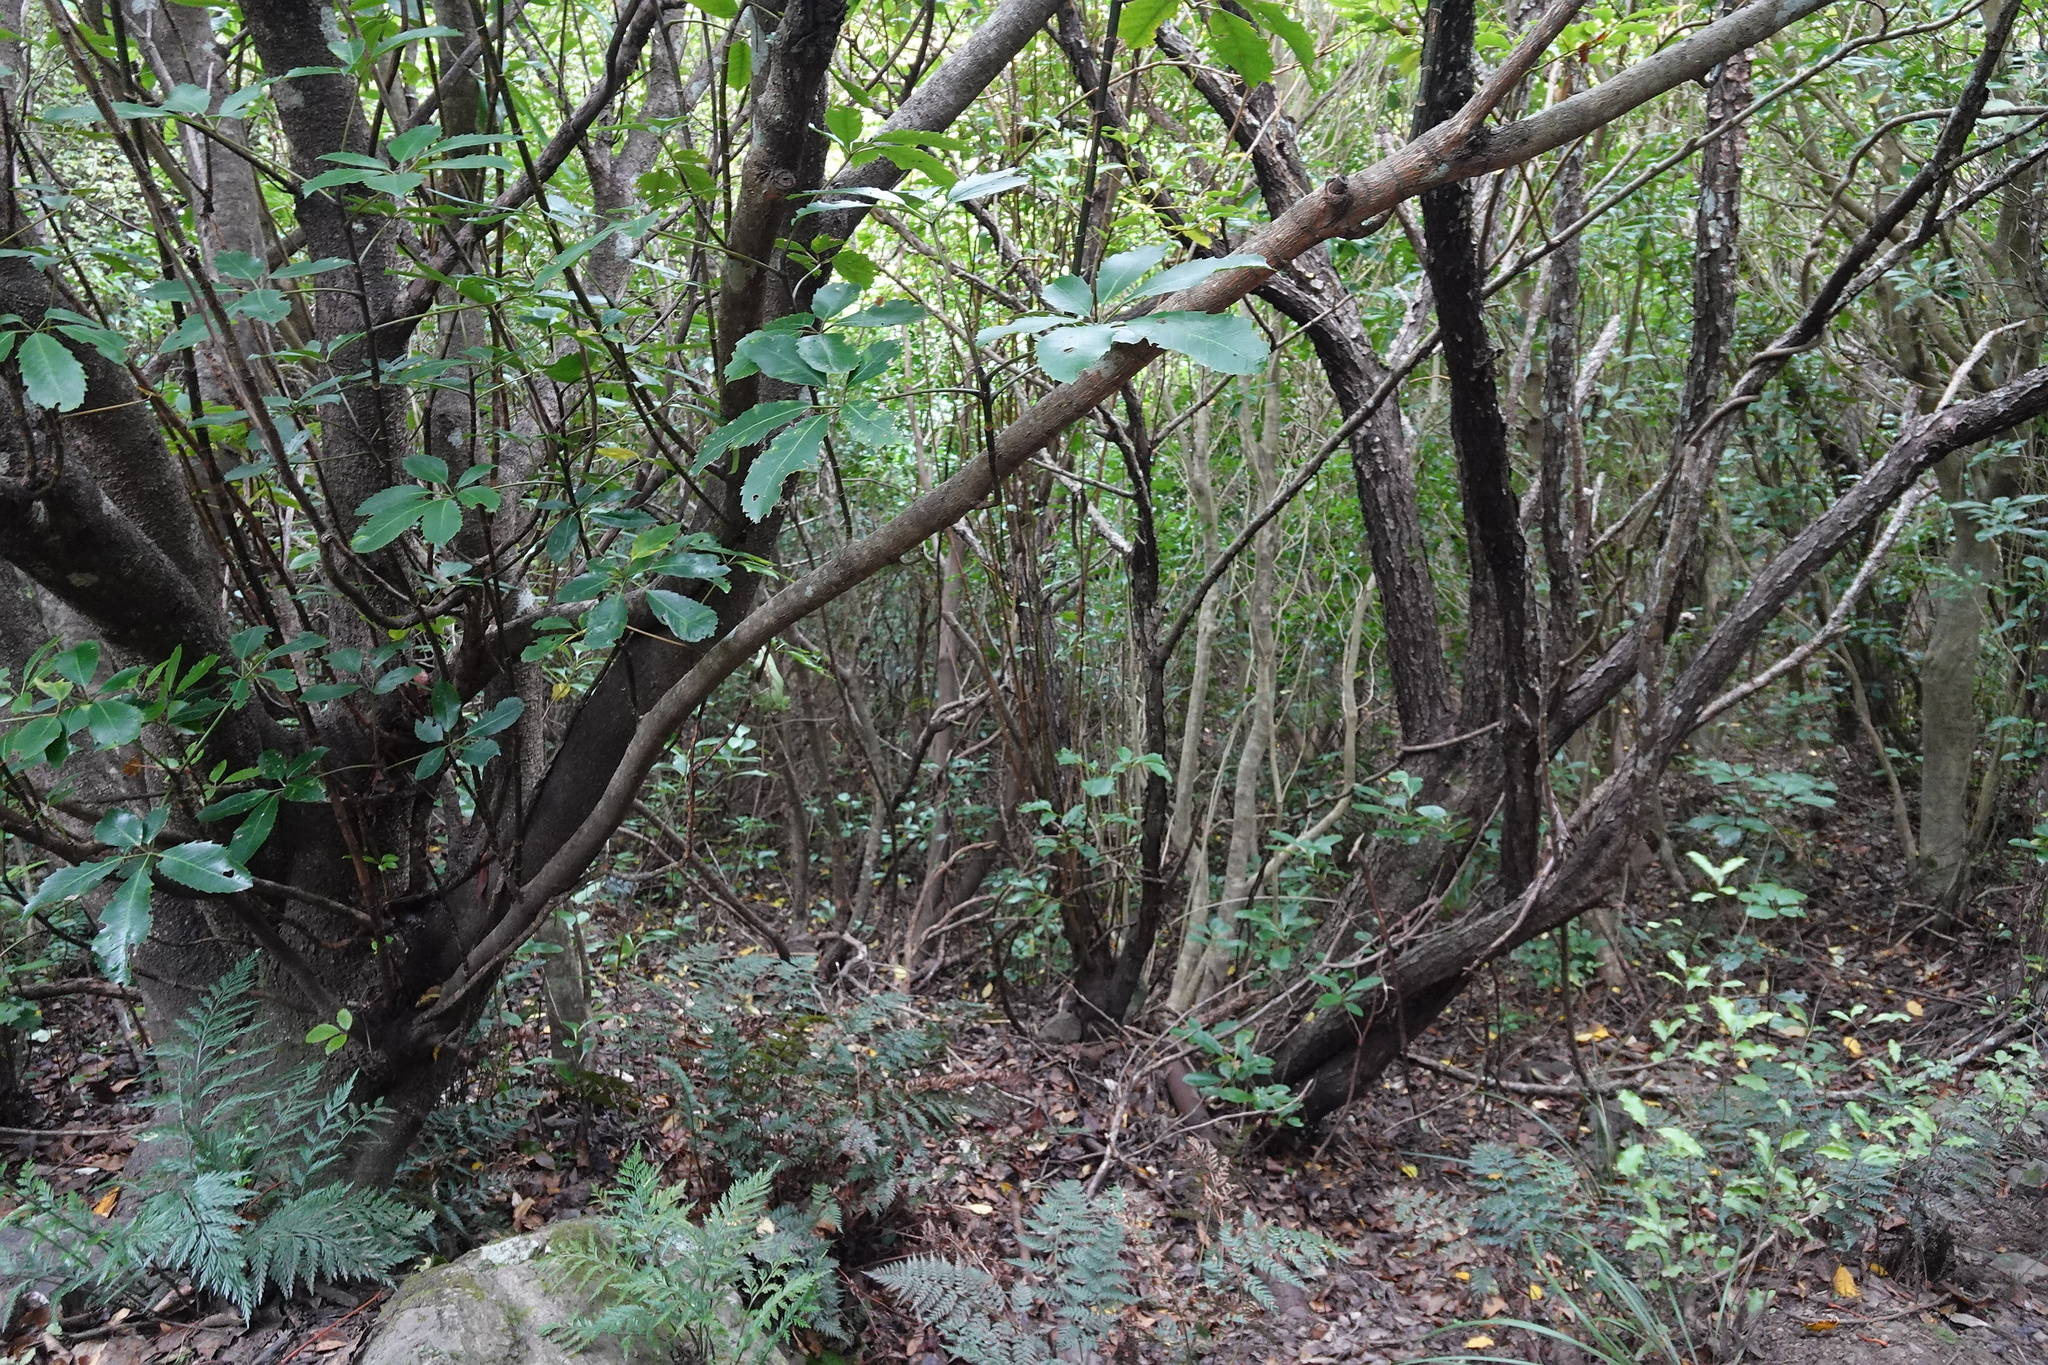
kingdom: Plantae
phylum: Tracheophyta
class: Magnoliopsida
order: Apiales
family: Araliaceae
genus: Neopanax
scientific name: Neopanax arboreus
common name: Five-fingers
